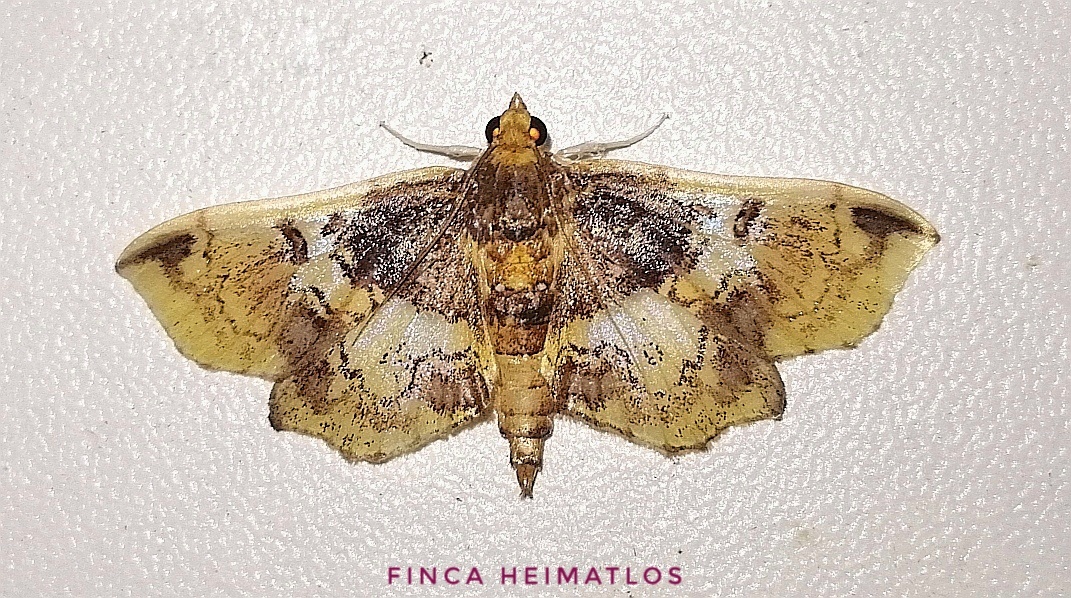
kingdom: Animalia
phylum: Arthropoda
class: Insecta
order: Lepidoptera
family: Crambidae
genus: Megastes
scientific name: Megastes erythrostolalis
